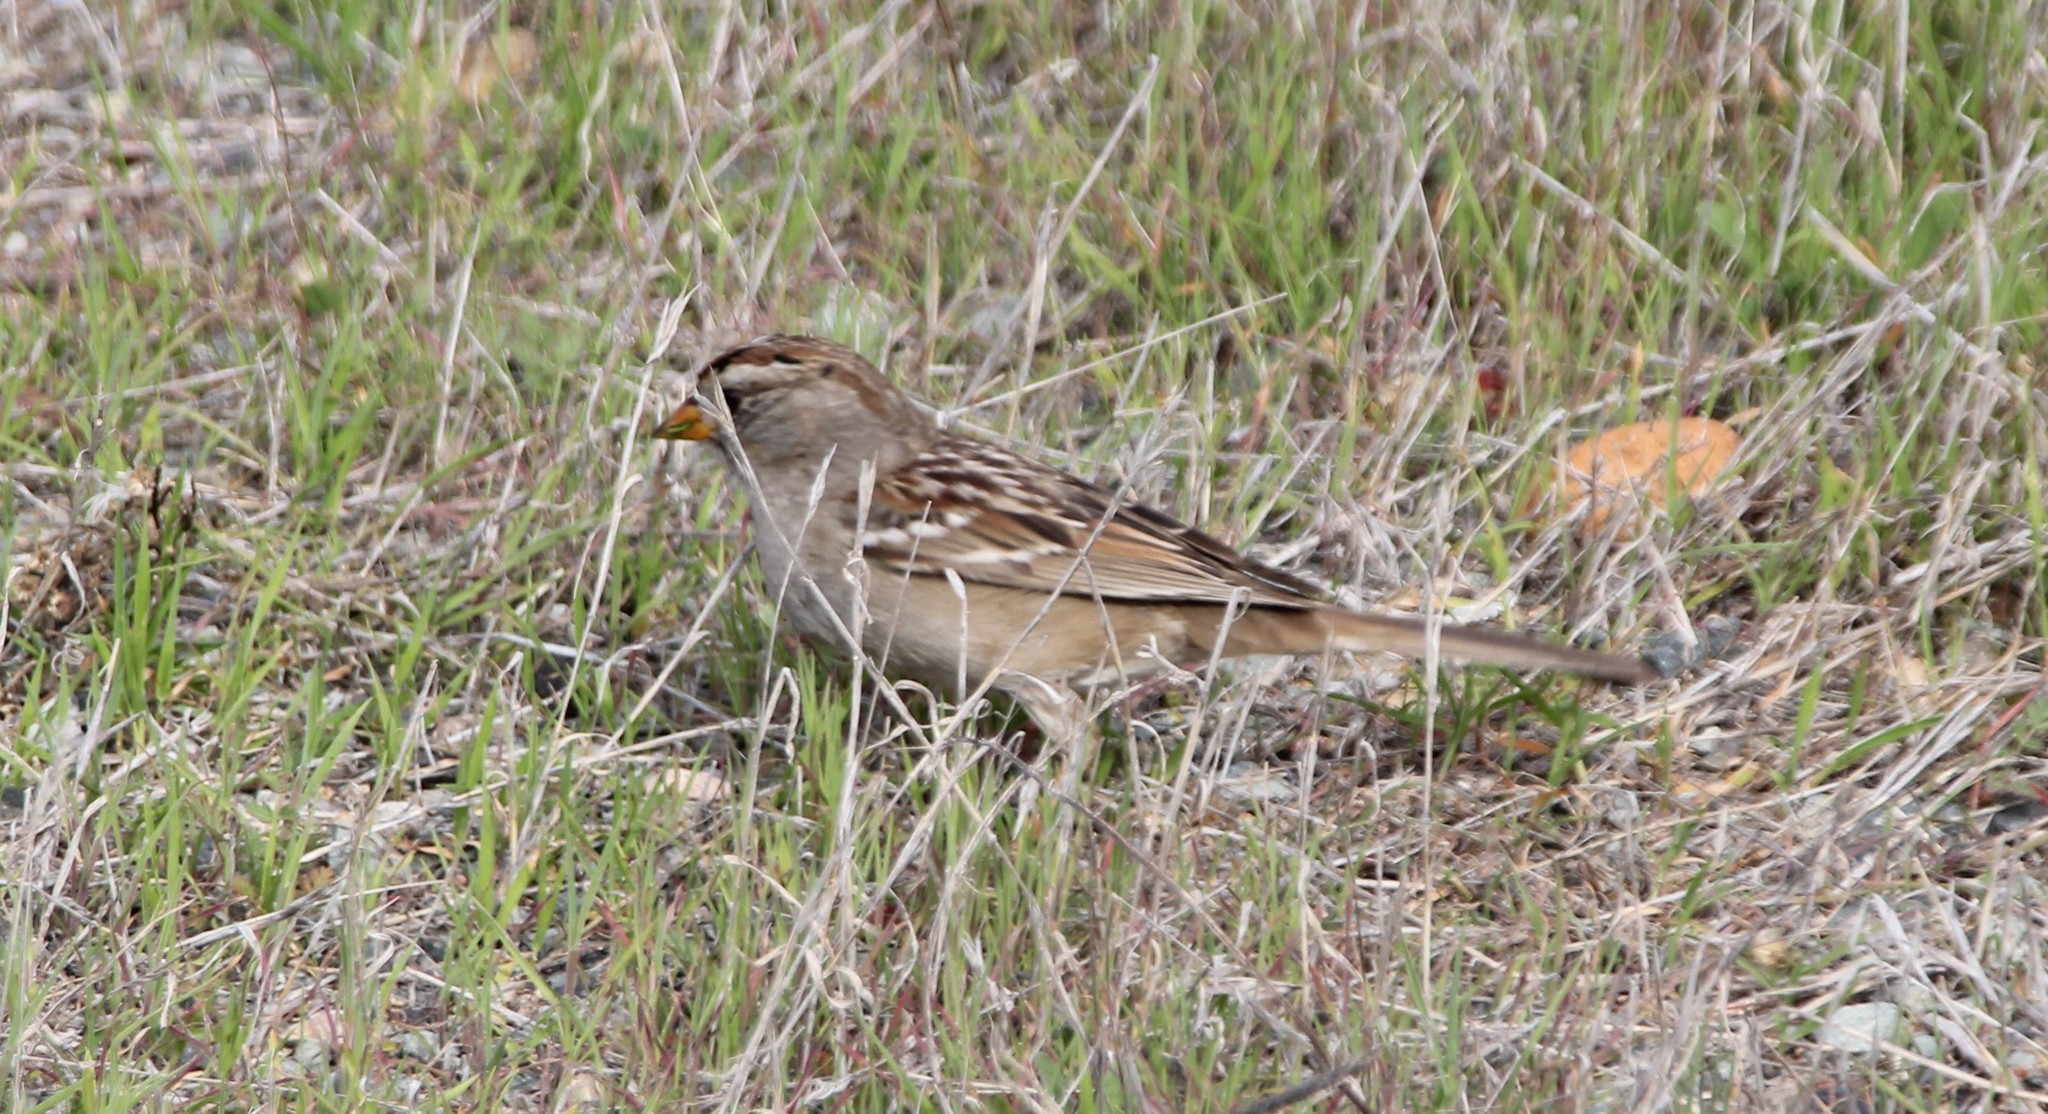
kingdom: Animalia
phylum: Chordata
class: Aves
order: Passeriformes
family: Passerellidae
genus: Zonotrichia
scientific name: Zonotrichia leucophrys
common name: White-crowned sparrow
